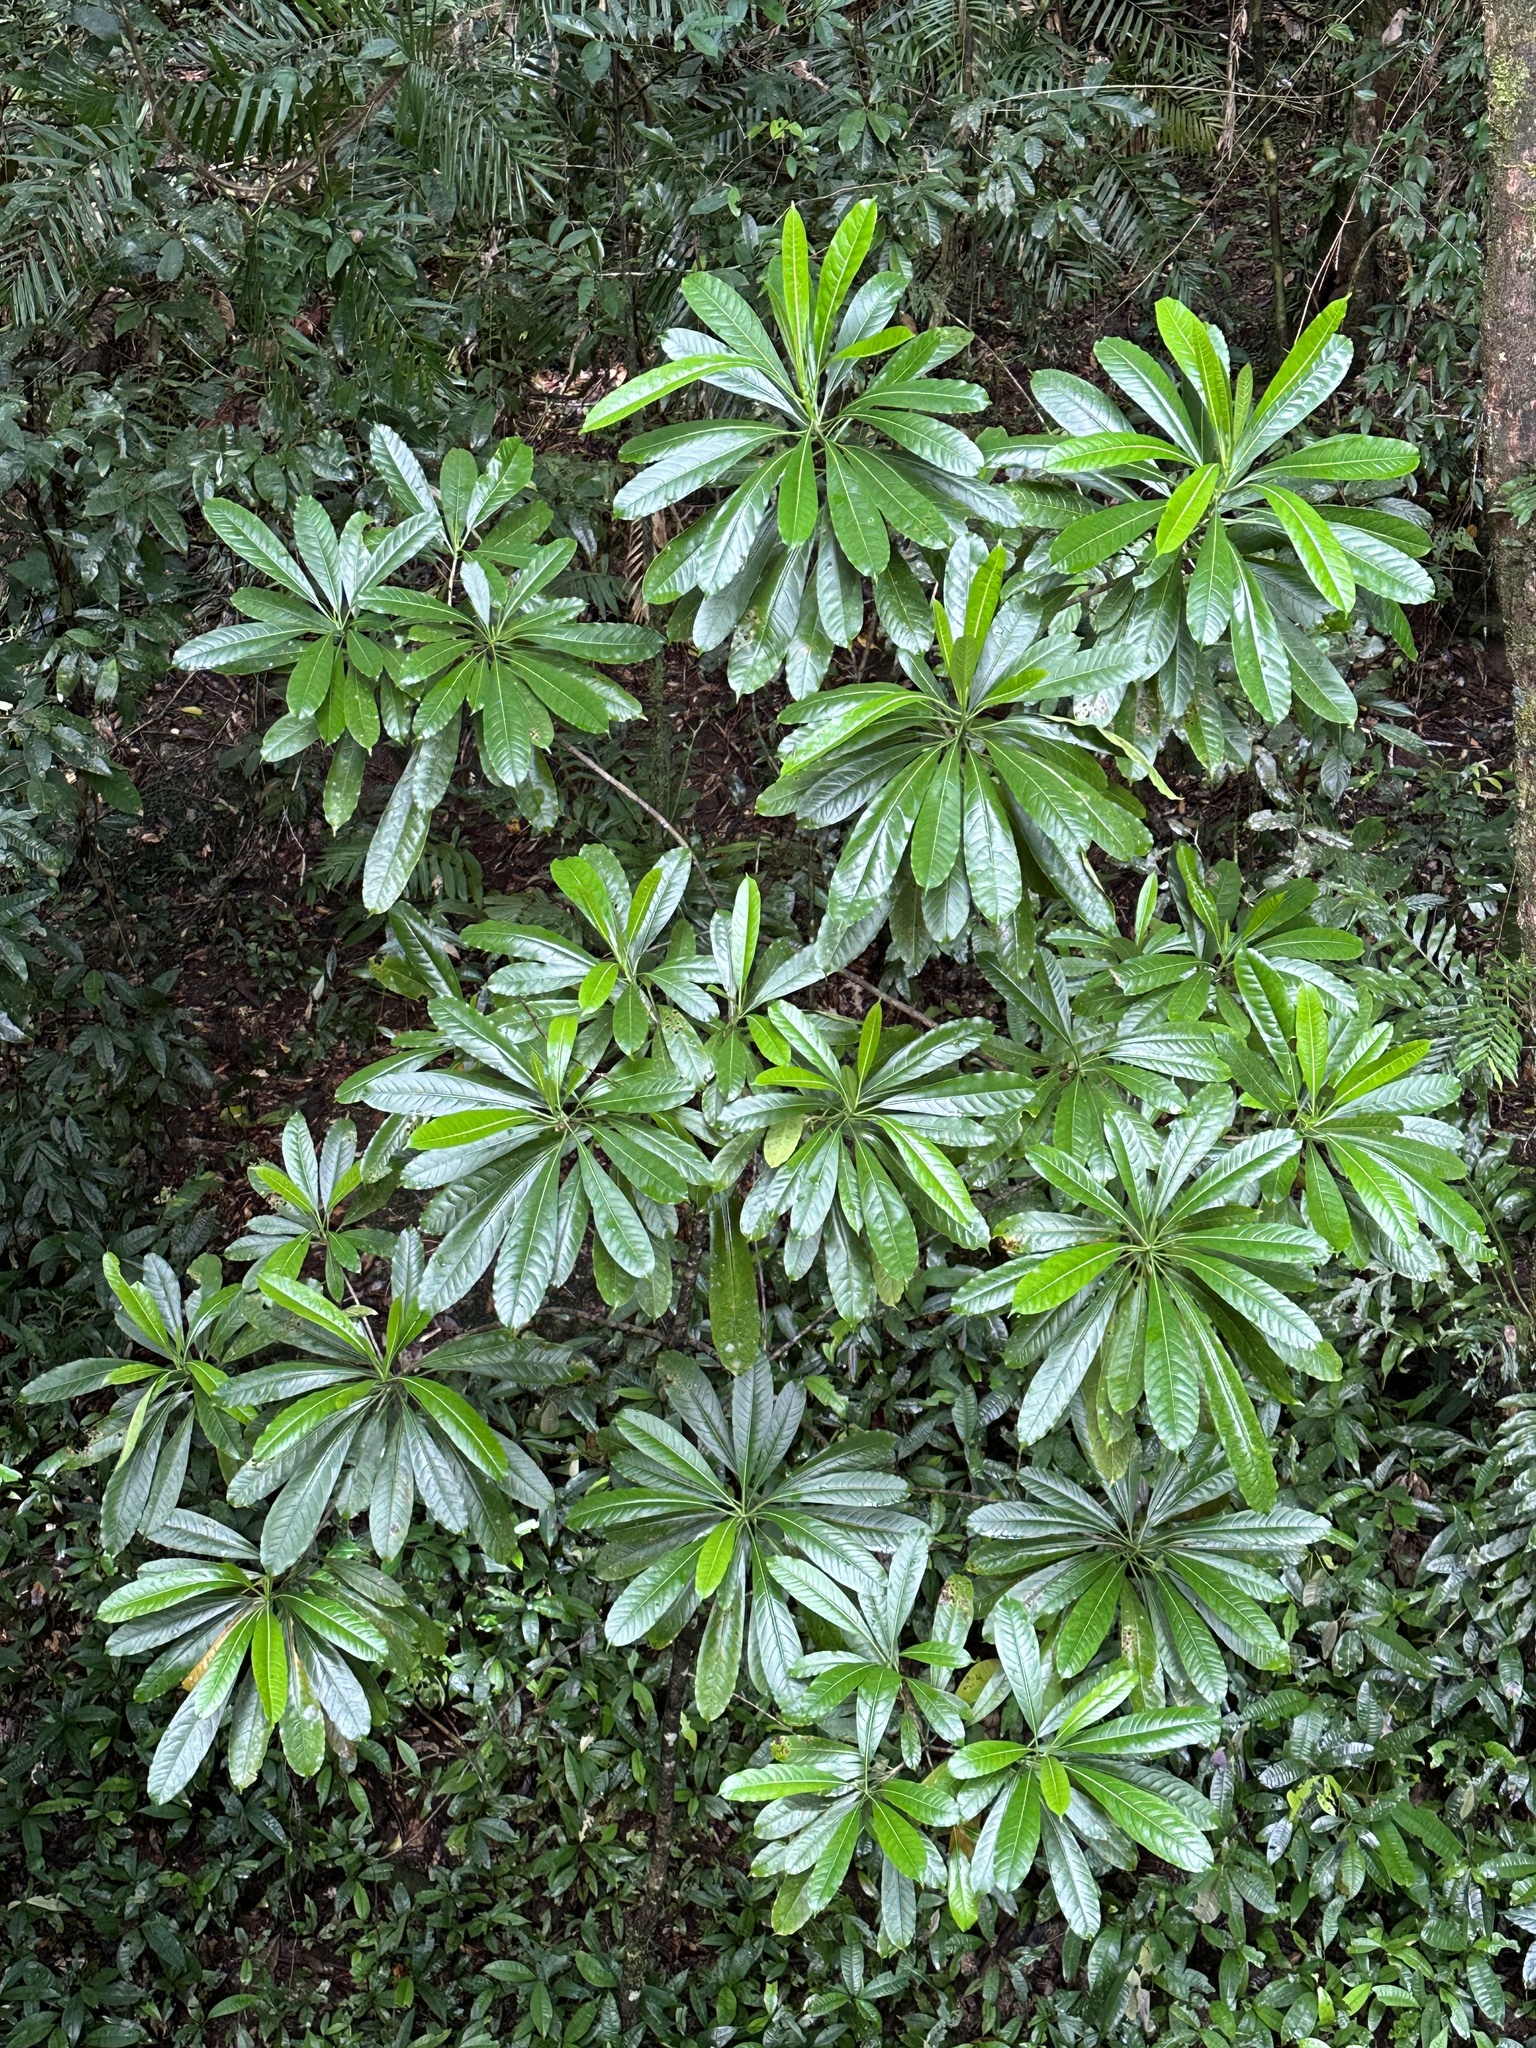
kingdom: Plantae
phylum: Tracheophyta
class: Magnoliopsida
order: Gentianales
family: Apocynaceae
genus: Cerbera
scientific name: Cerbera floribunda
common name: Cassowary plumtree
